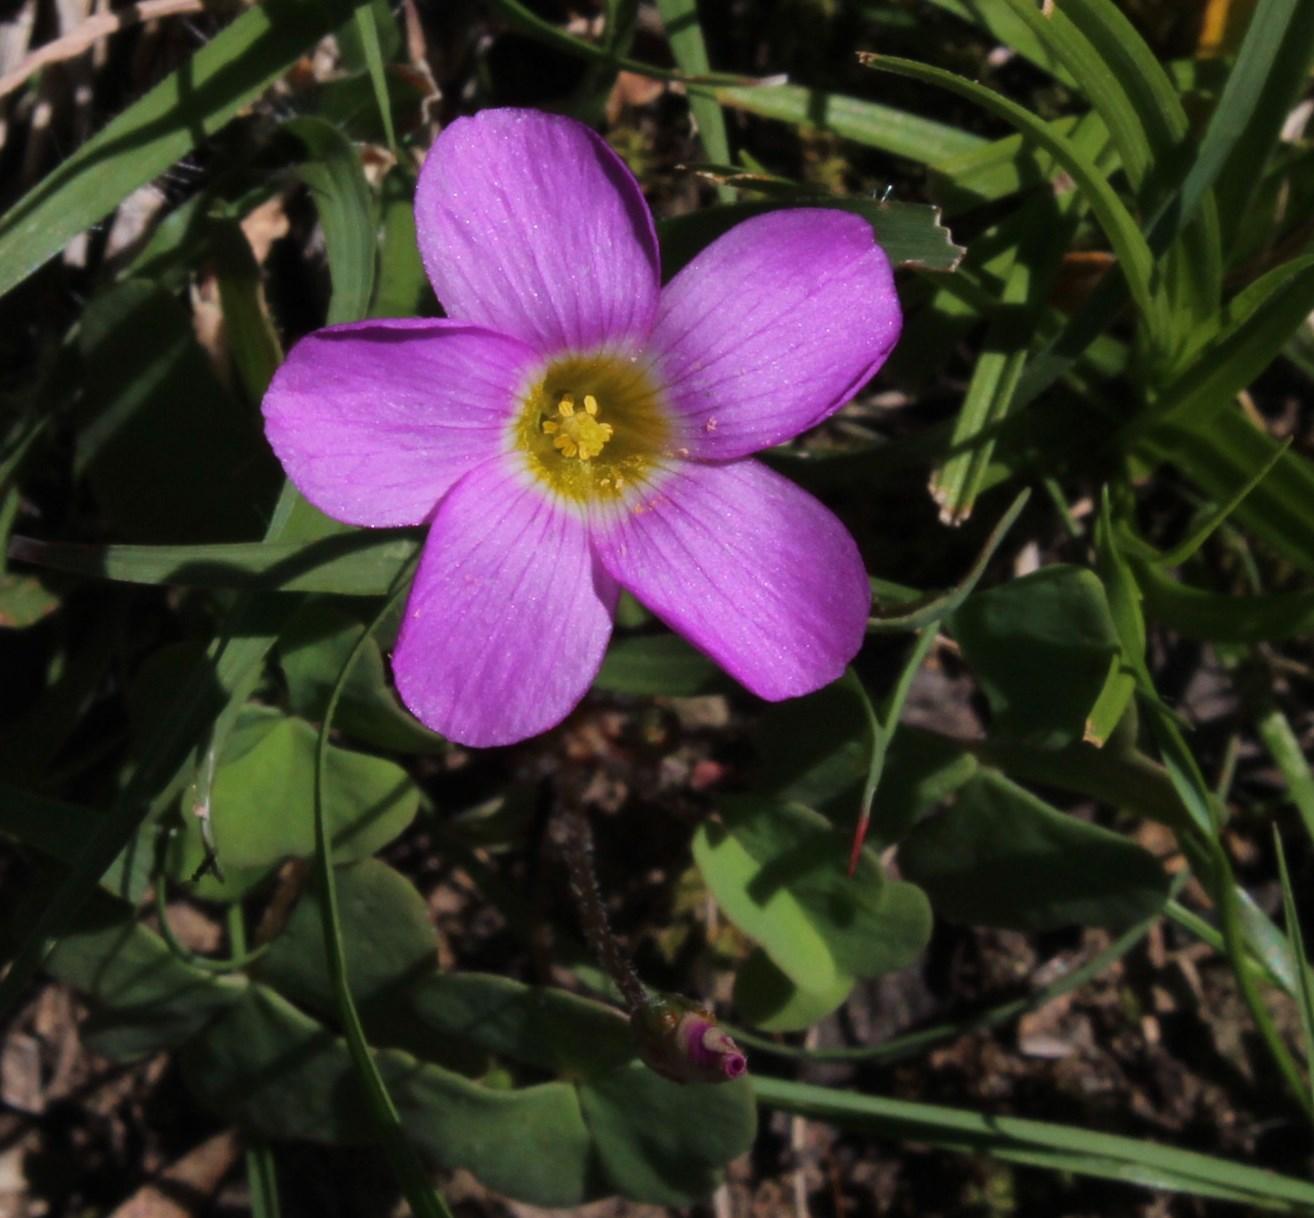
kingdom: Plantae
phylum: Tracheophyta
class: Magnoliopsida
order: Oxalidales
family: Oxalidaceae
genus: Oxalis
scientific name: Oxalis obliquifolia
